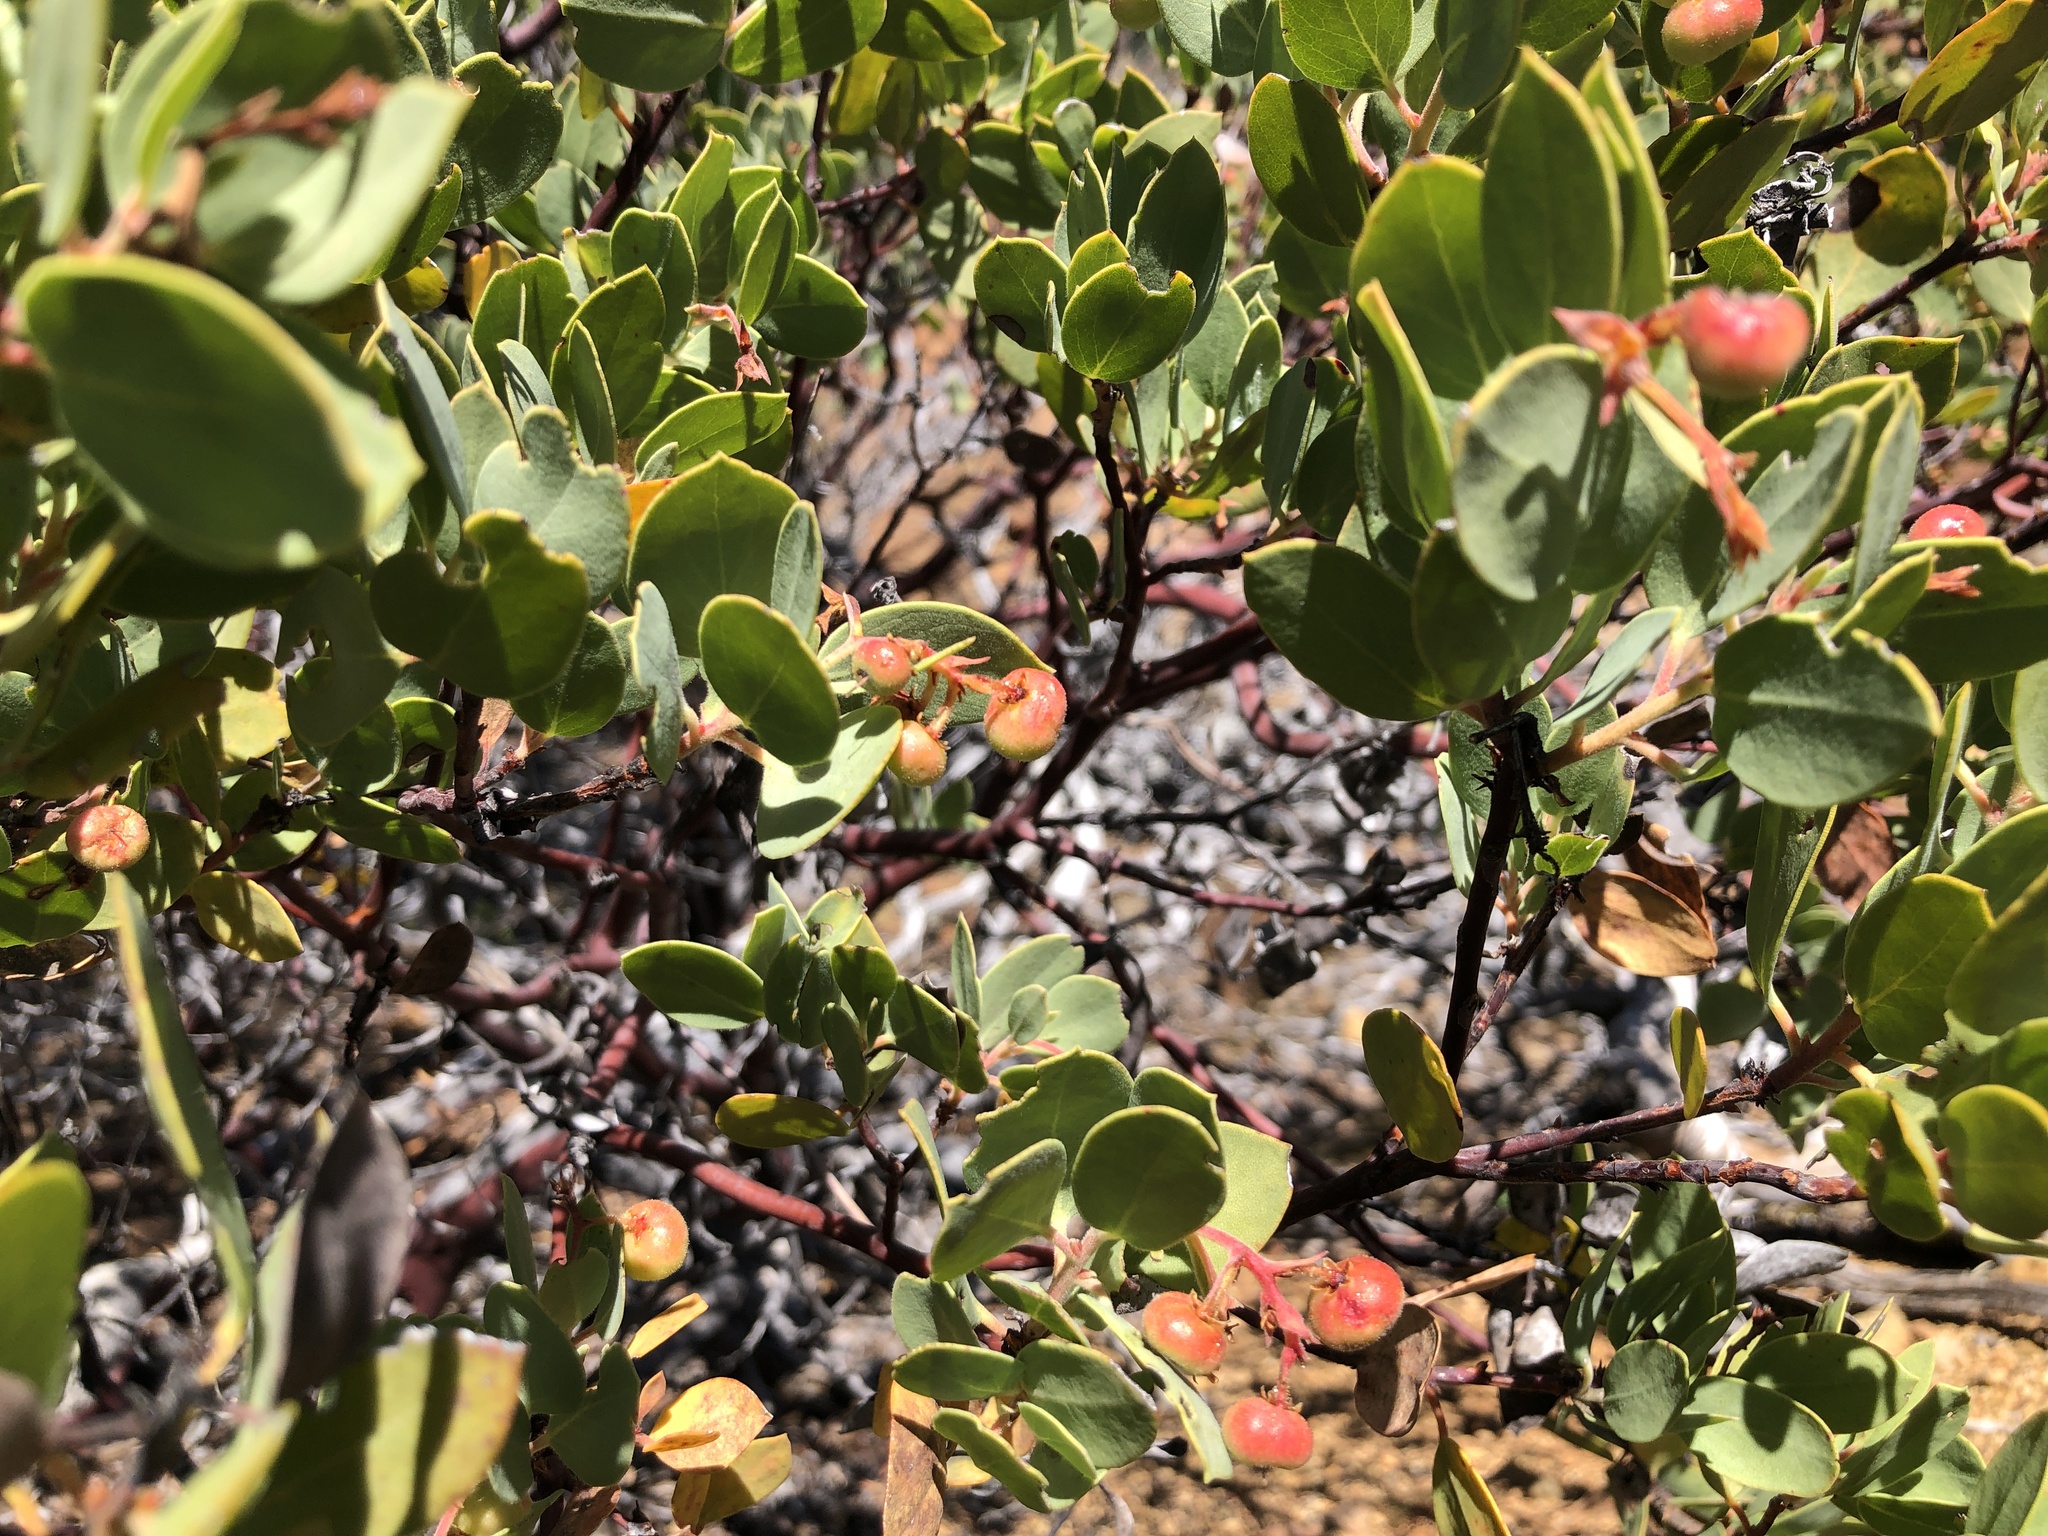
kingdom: Plantae
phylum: Tracheophyta
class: Magnoliopsida
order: Ericales
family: Ericaceae
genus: Arctostaphylos
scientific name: Arctostaphylos viscida
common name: White-leaf manzanita
